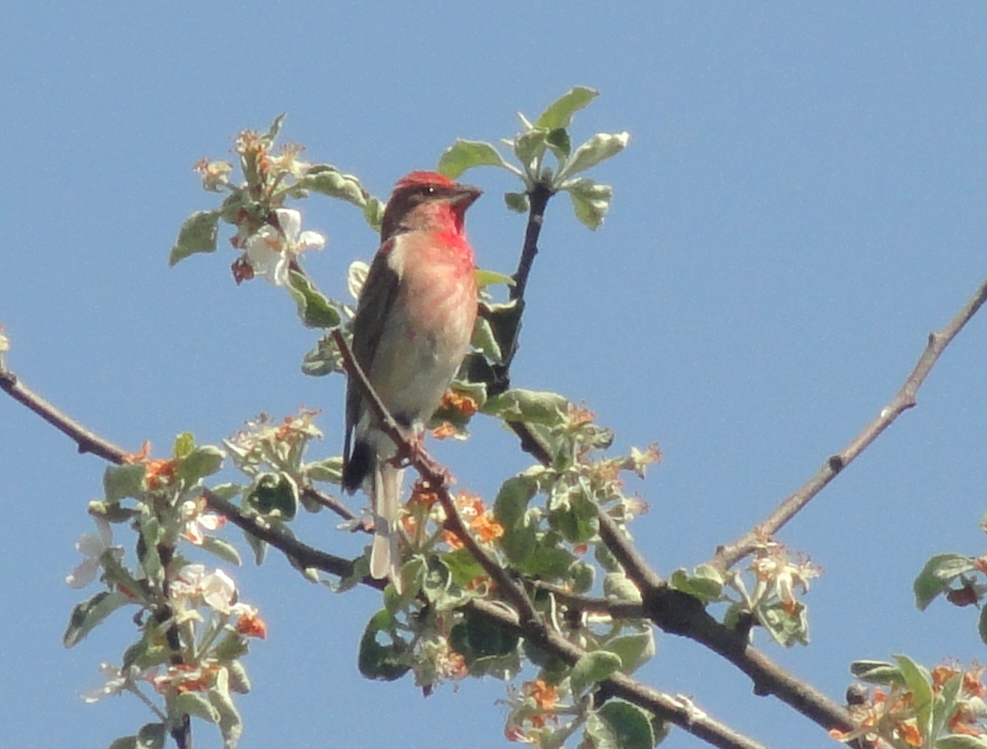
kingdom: Animalia
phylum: Chordata
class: Aves
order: Passeriformes
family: Fringillidae
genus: Carpodacus
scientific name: Carpodacus erythrinus
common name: Common rosefinch
